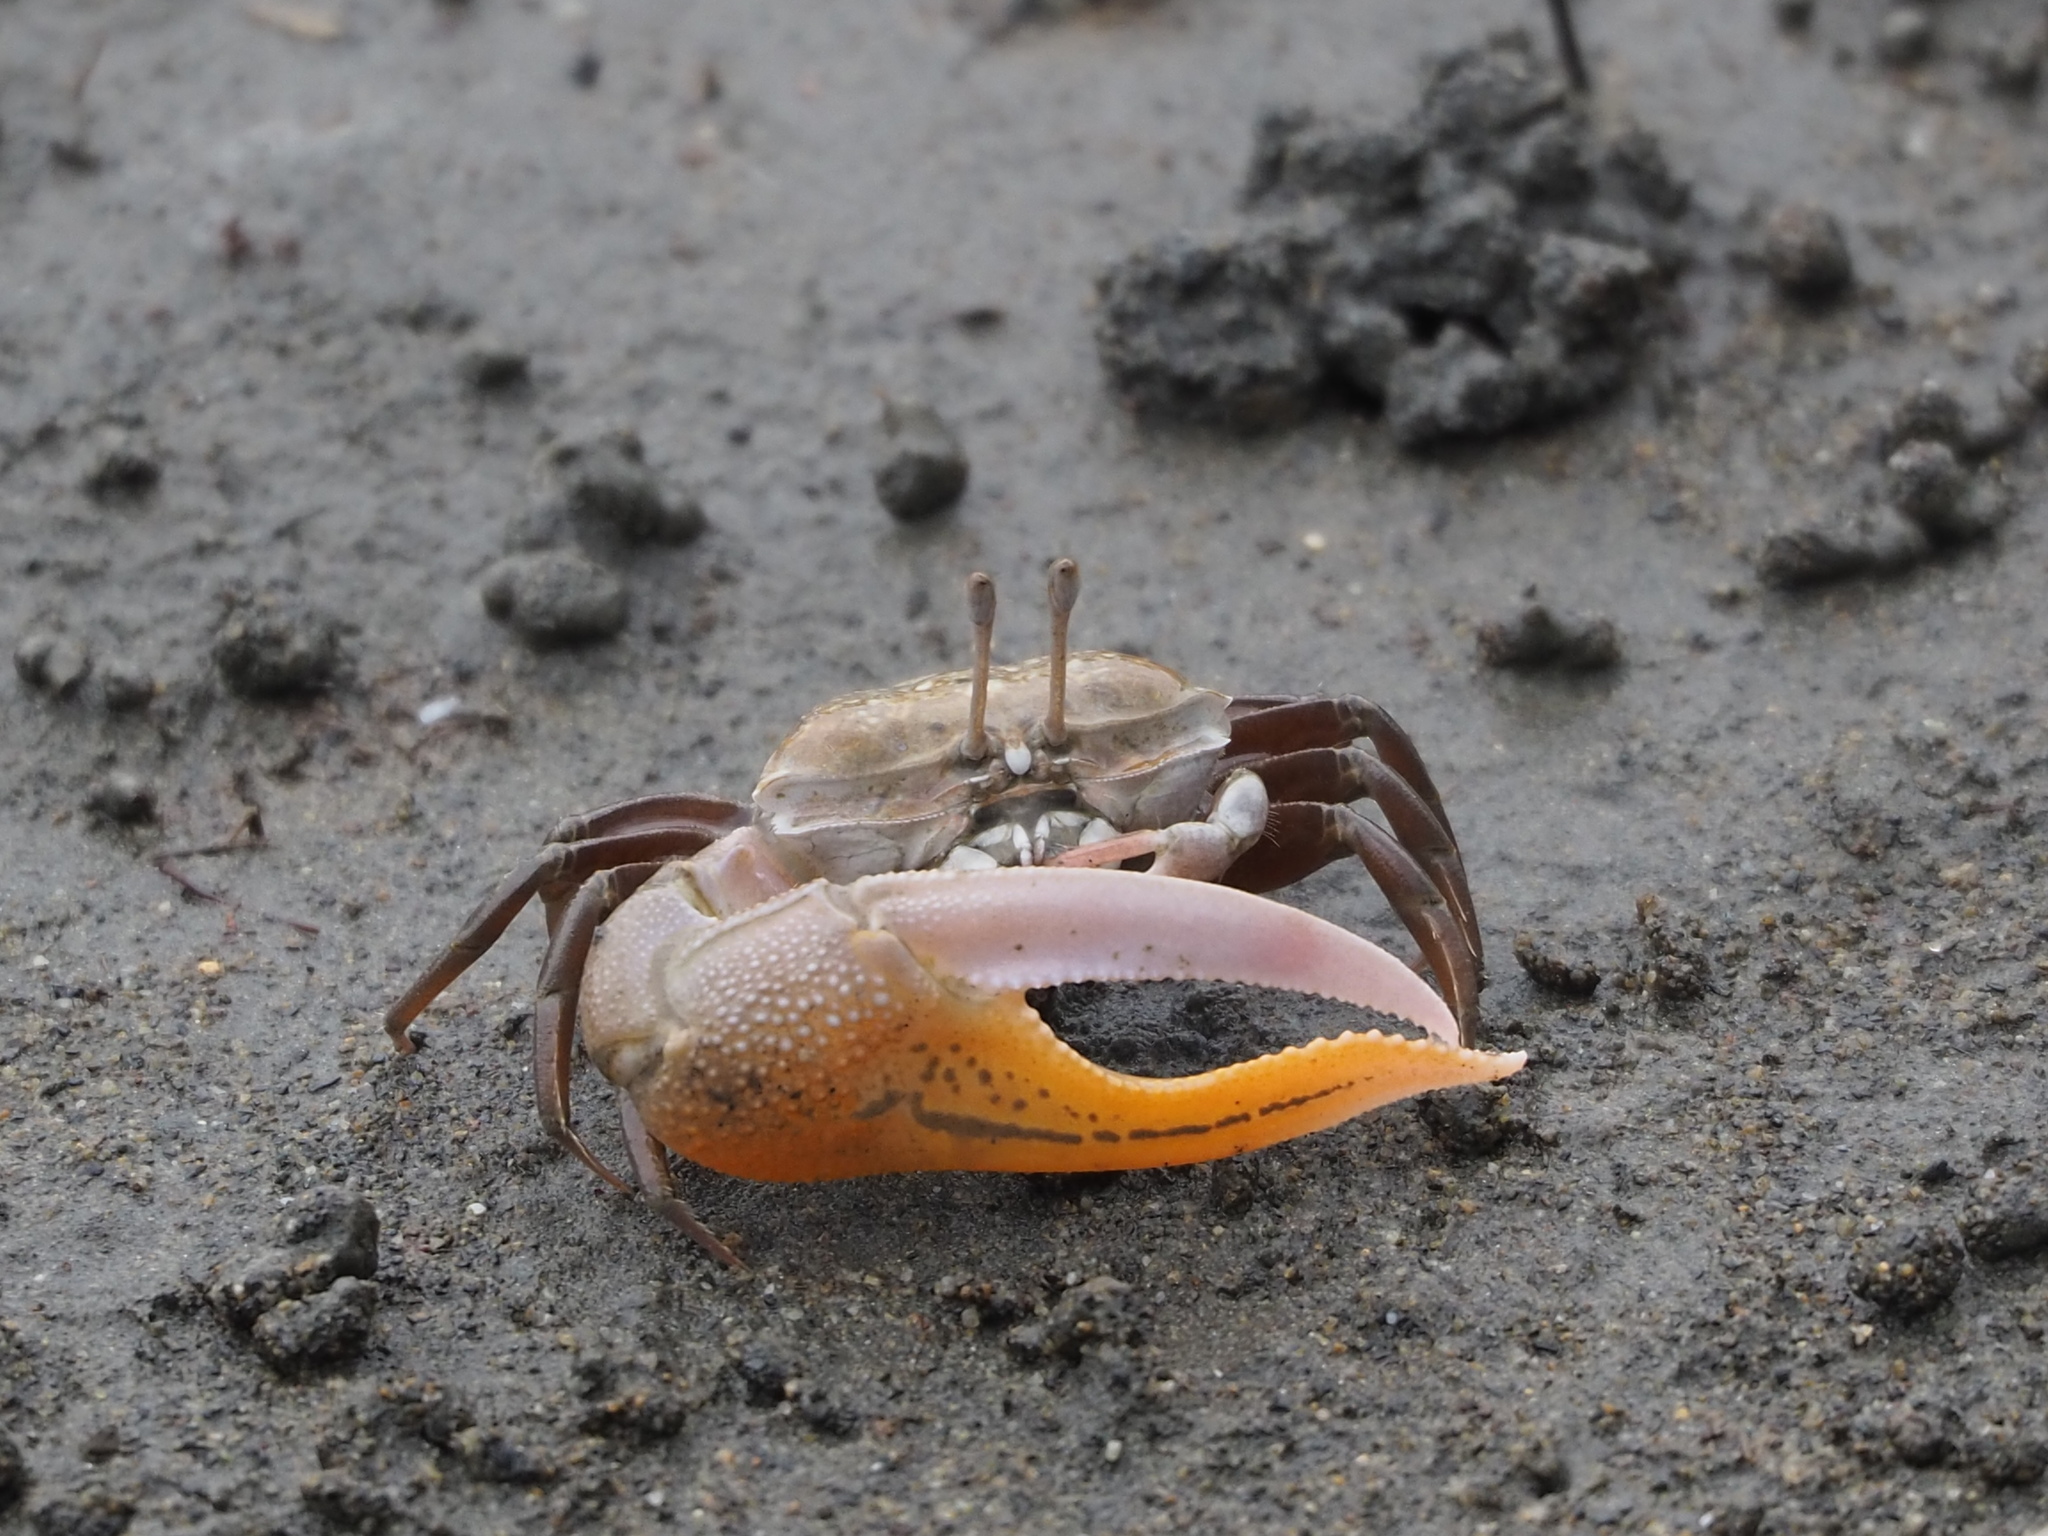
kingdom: Animalia
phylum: Arthropoda
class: Malacostraca
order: Decapoda
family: Ocypodidae
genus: Gelasimus
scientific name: Gelasimus borealis
